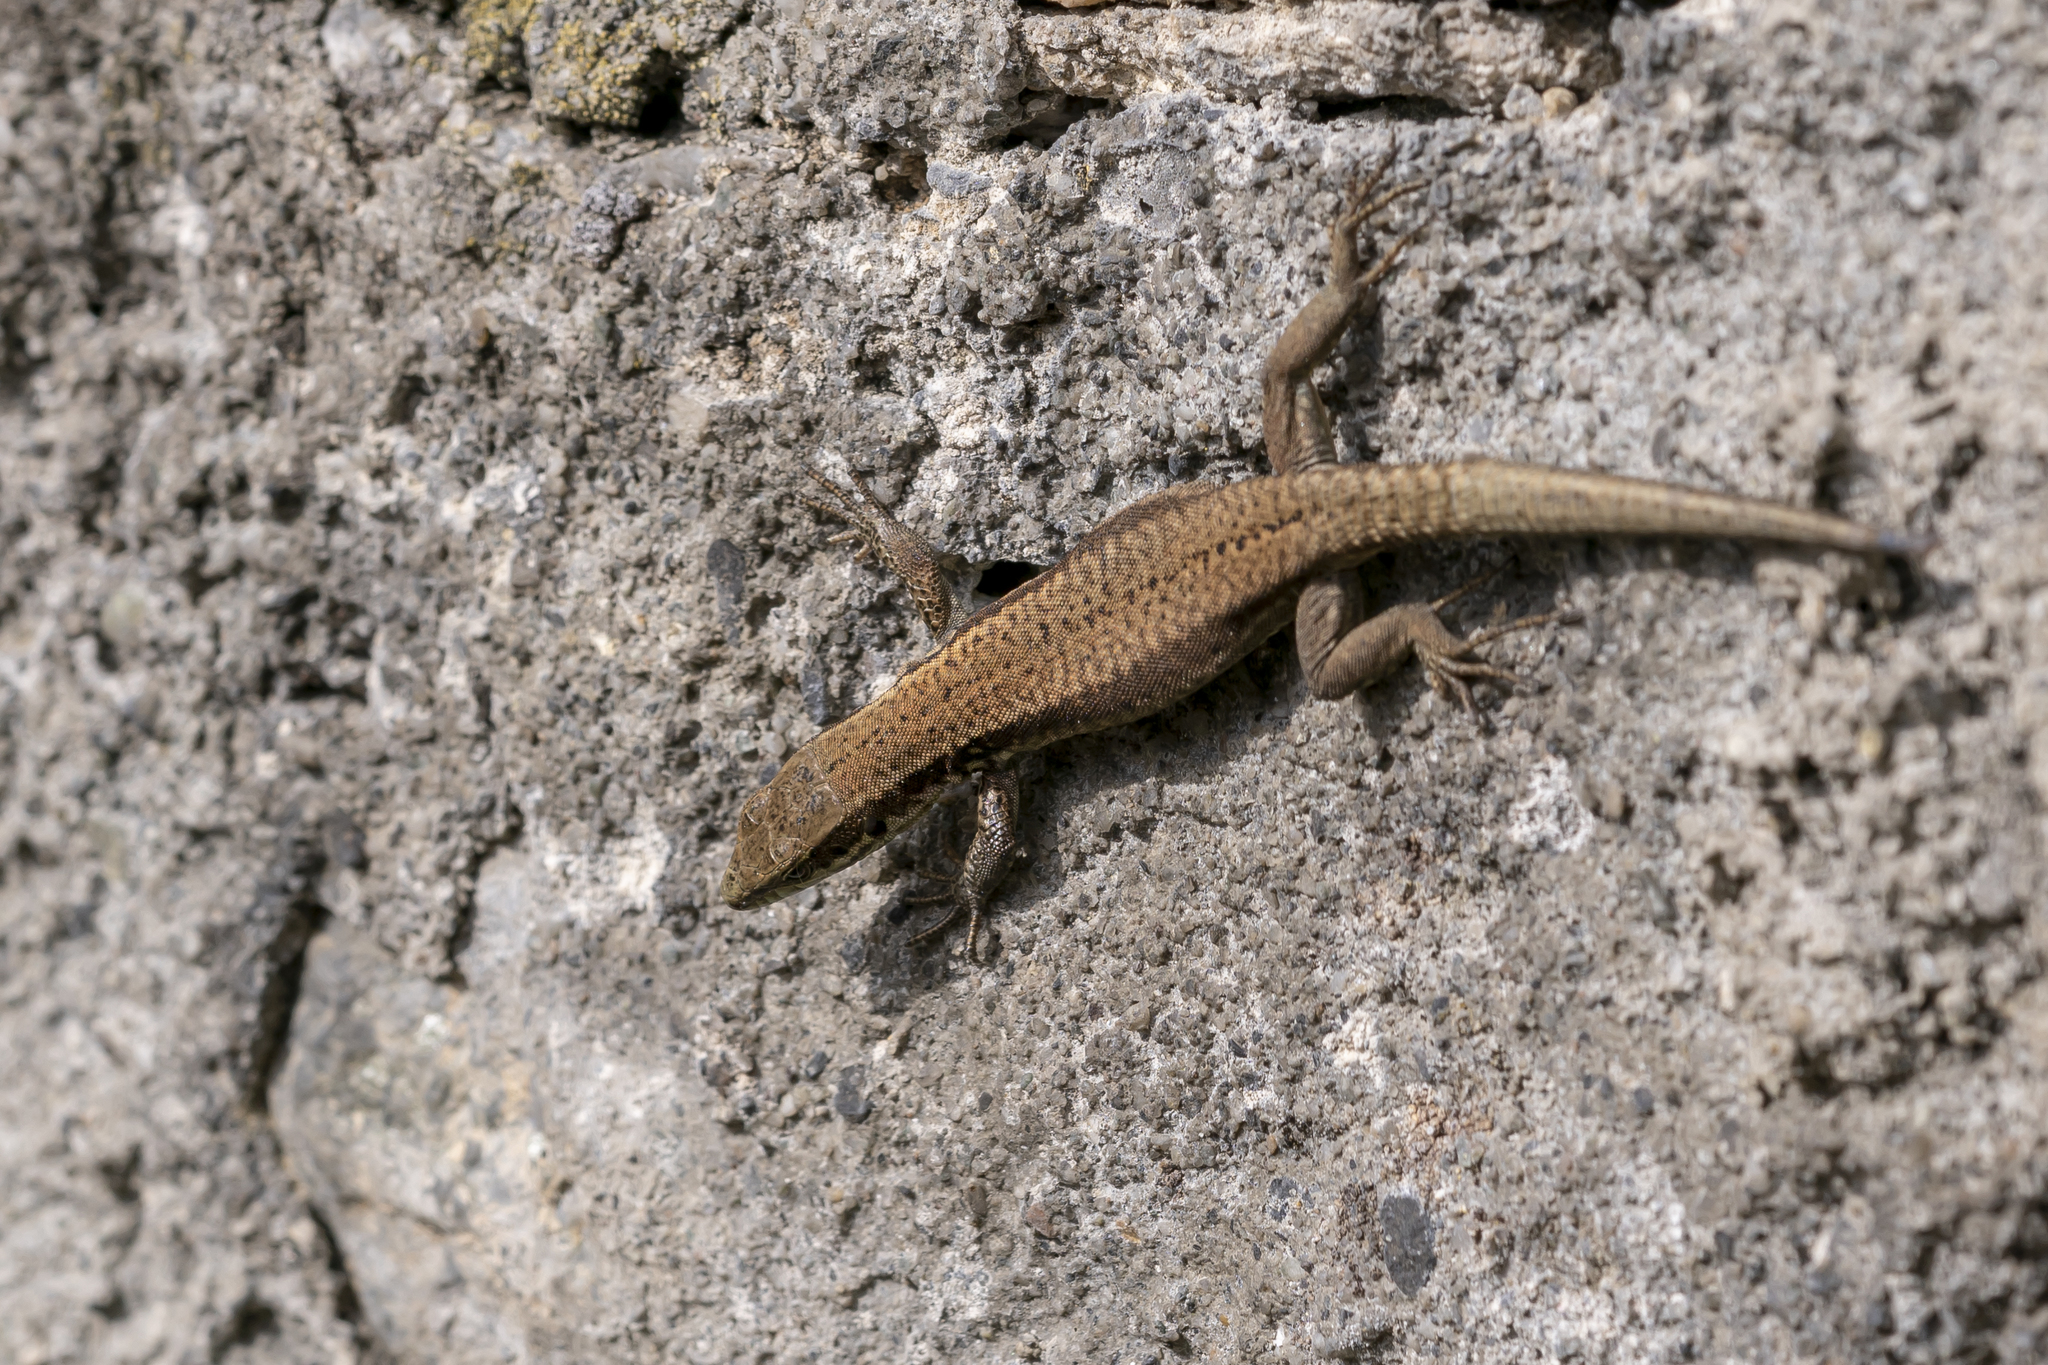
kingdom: Animalia
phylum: Chordata
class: Squamata
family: Lacertidae
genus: Podarcis
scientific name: Podarcis muralis
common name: Common wall lizard
